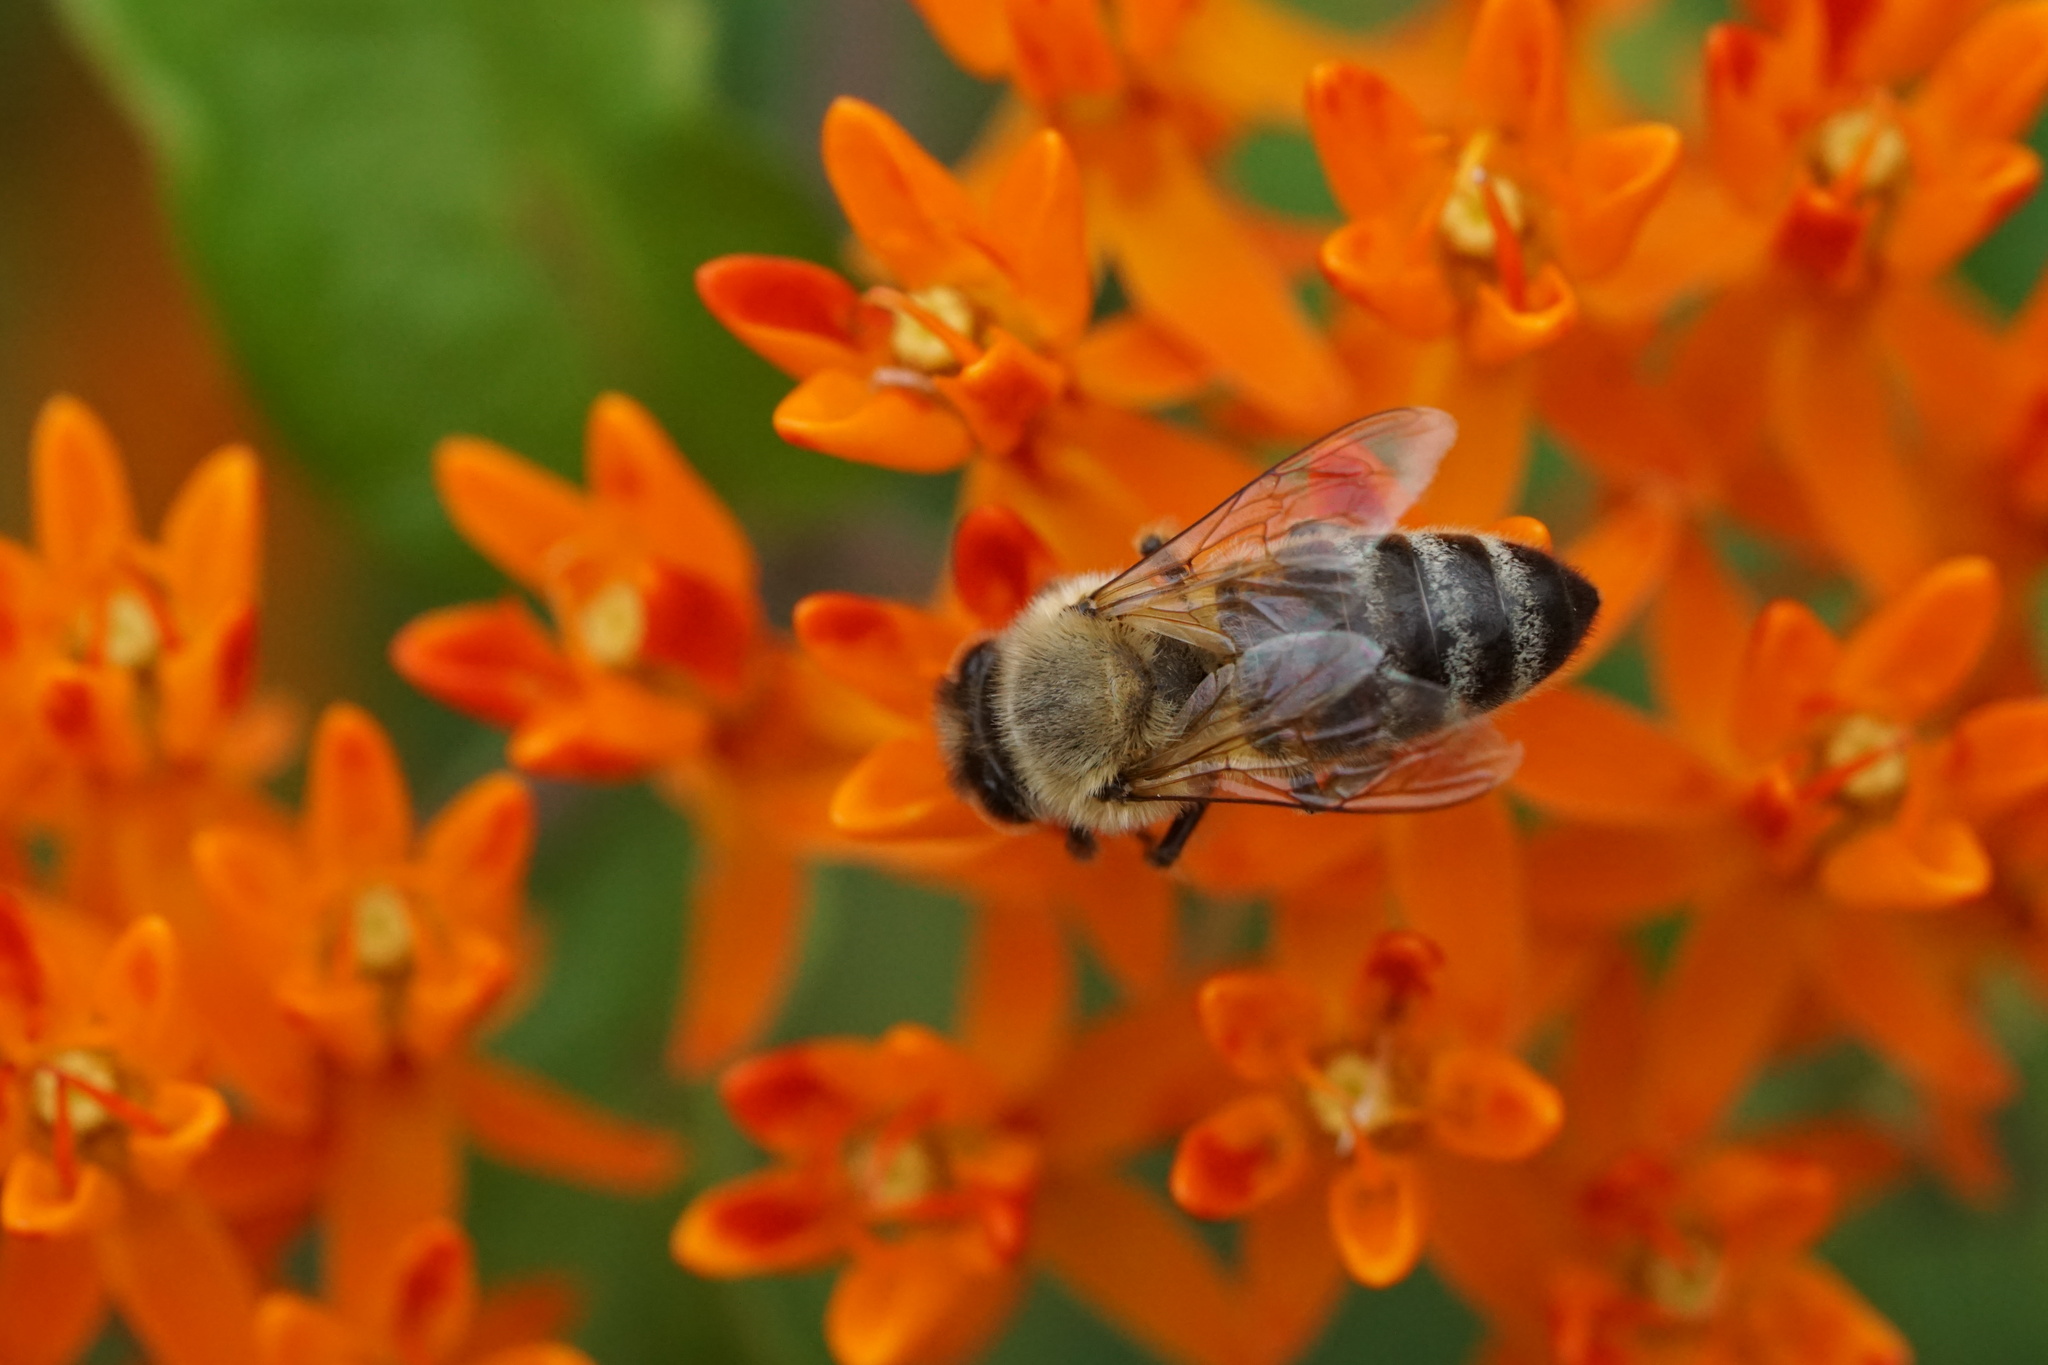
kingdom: Animalia
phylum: Arthropoda
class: Insecta
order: Hymenoptera
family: Apidae
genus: Apis
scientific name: Apis mellifera
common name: Honey bee
